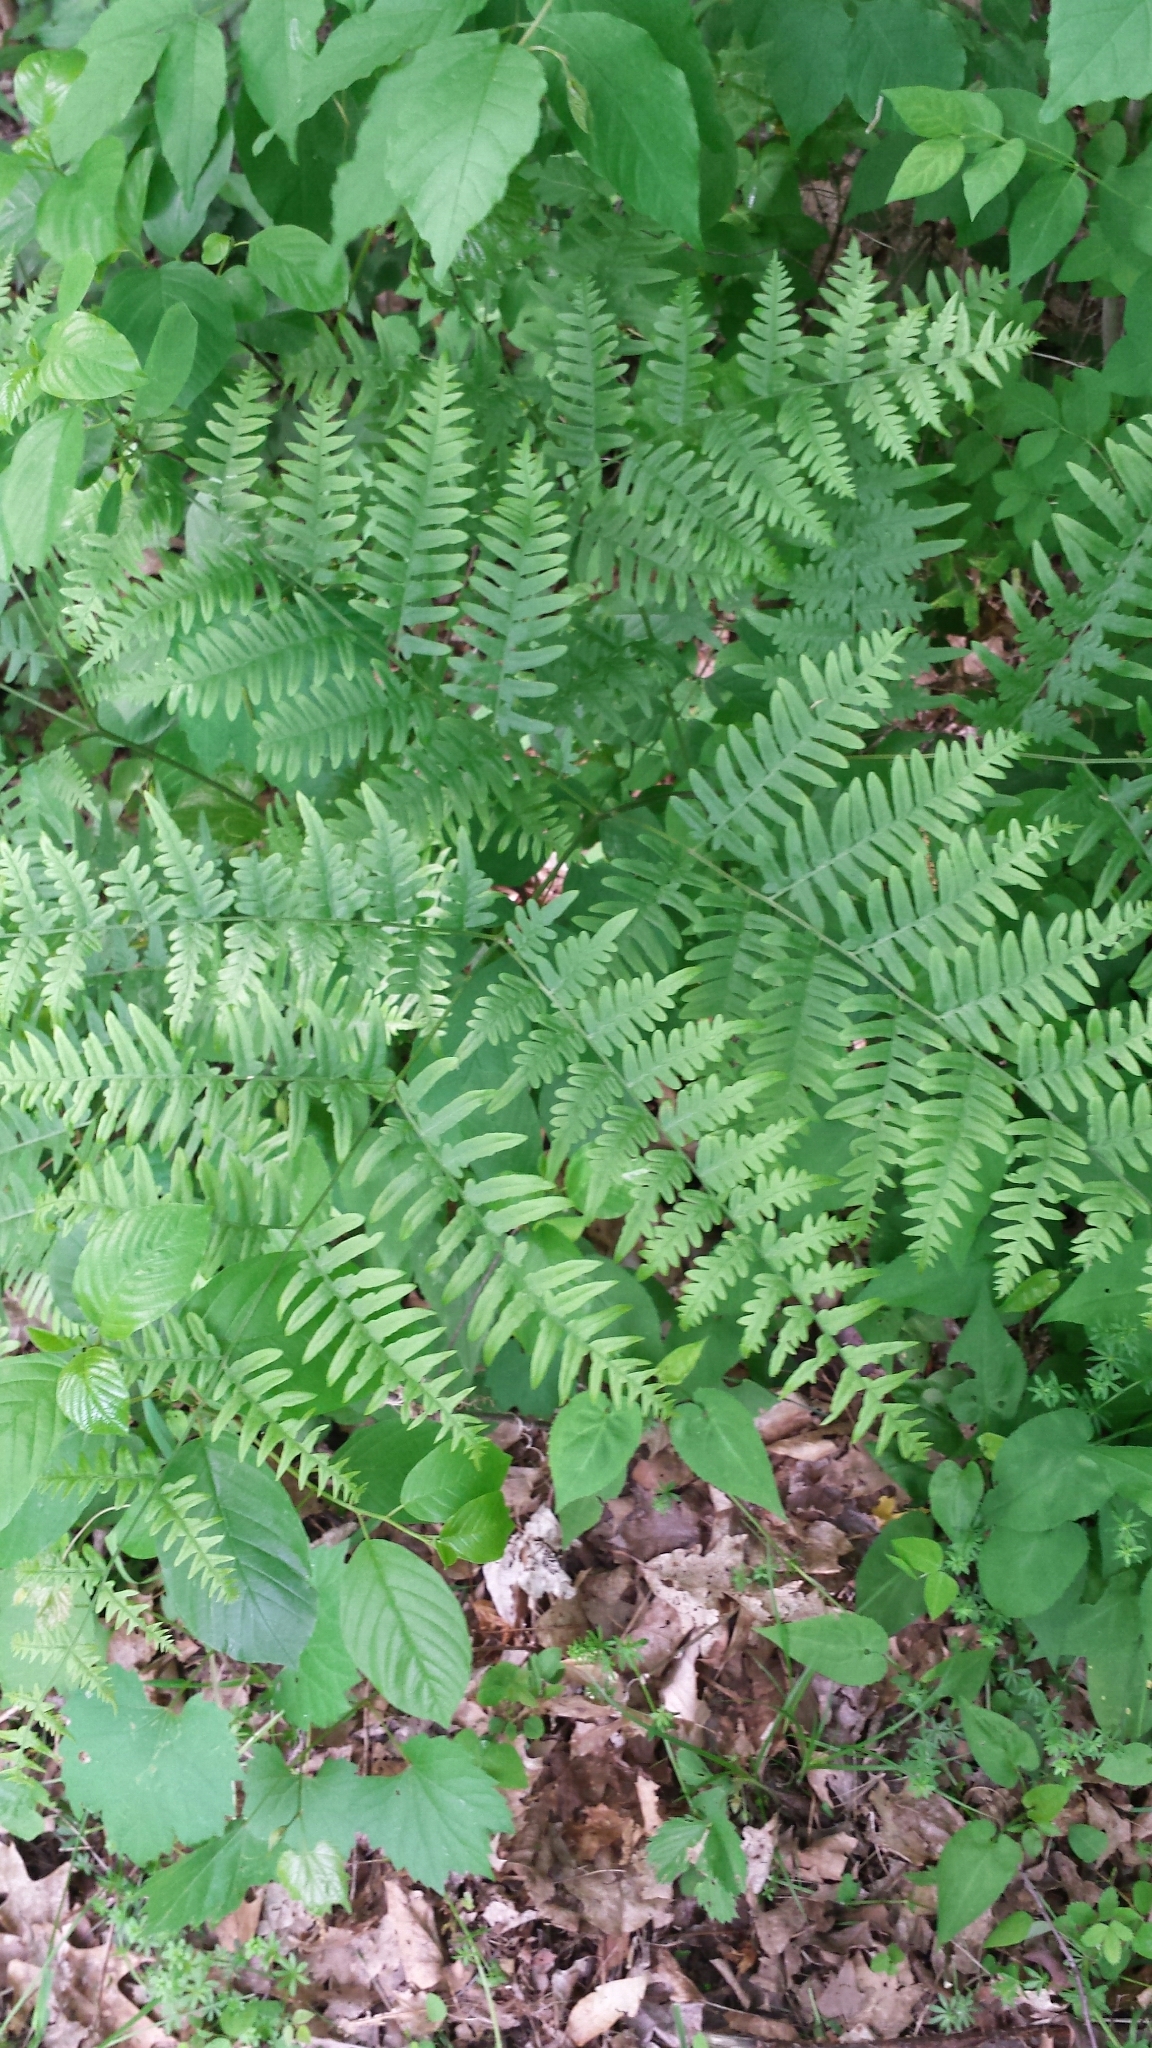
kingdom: Plantae
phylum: Tracheophyta
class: Polypodiopsida
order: Polypodiales
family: Dennstaedtiaceae
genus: Pteridium
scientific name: Pteridium aquilinum
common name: Bracken
